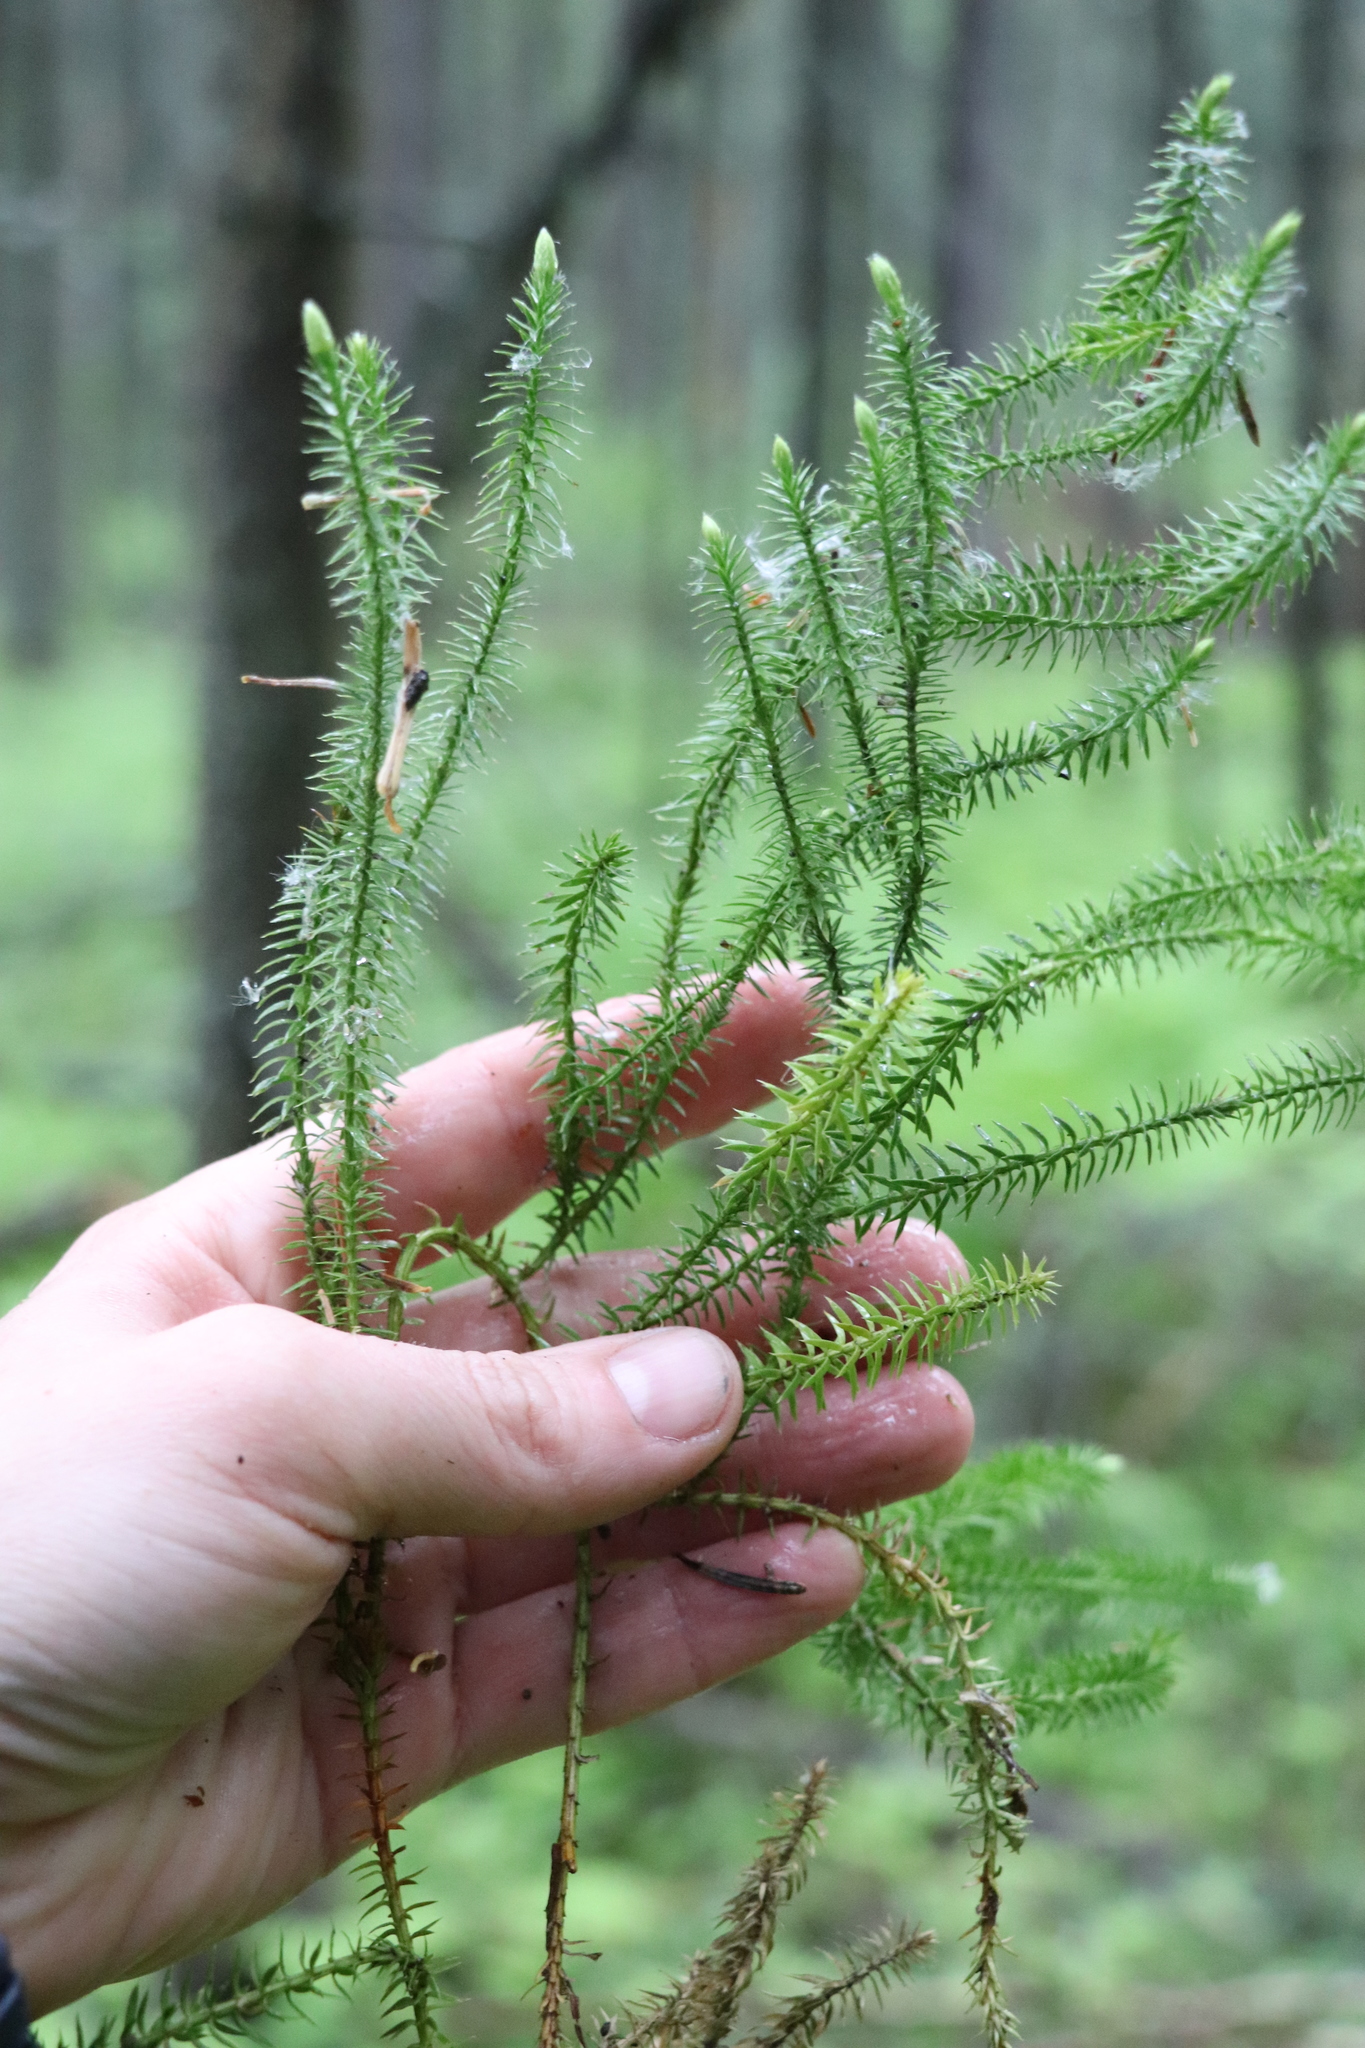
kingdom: Plantae
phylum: Tracheophyta
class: Lycopodiopsida
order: Lycopodiales
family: Lycopodiaceae
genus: Spinulum
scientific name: Spinulum annotinum
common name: Interrupted club-moss
